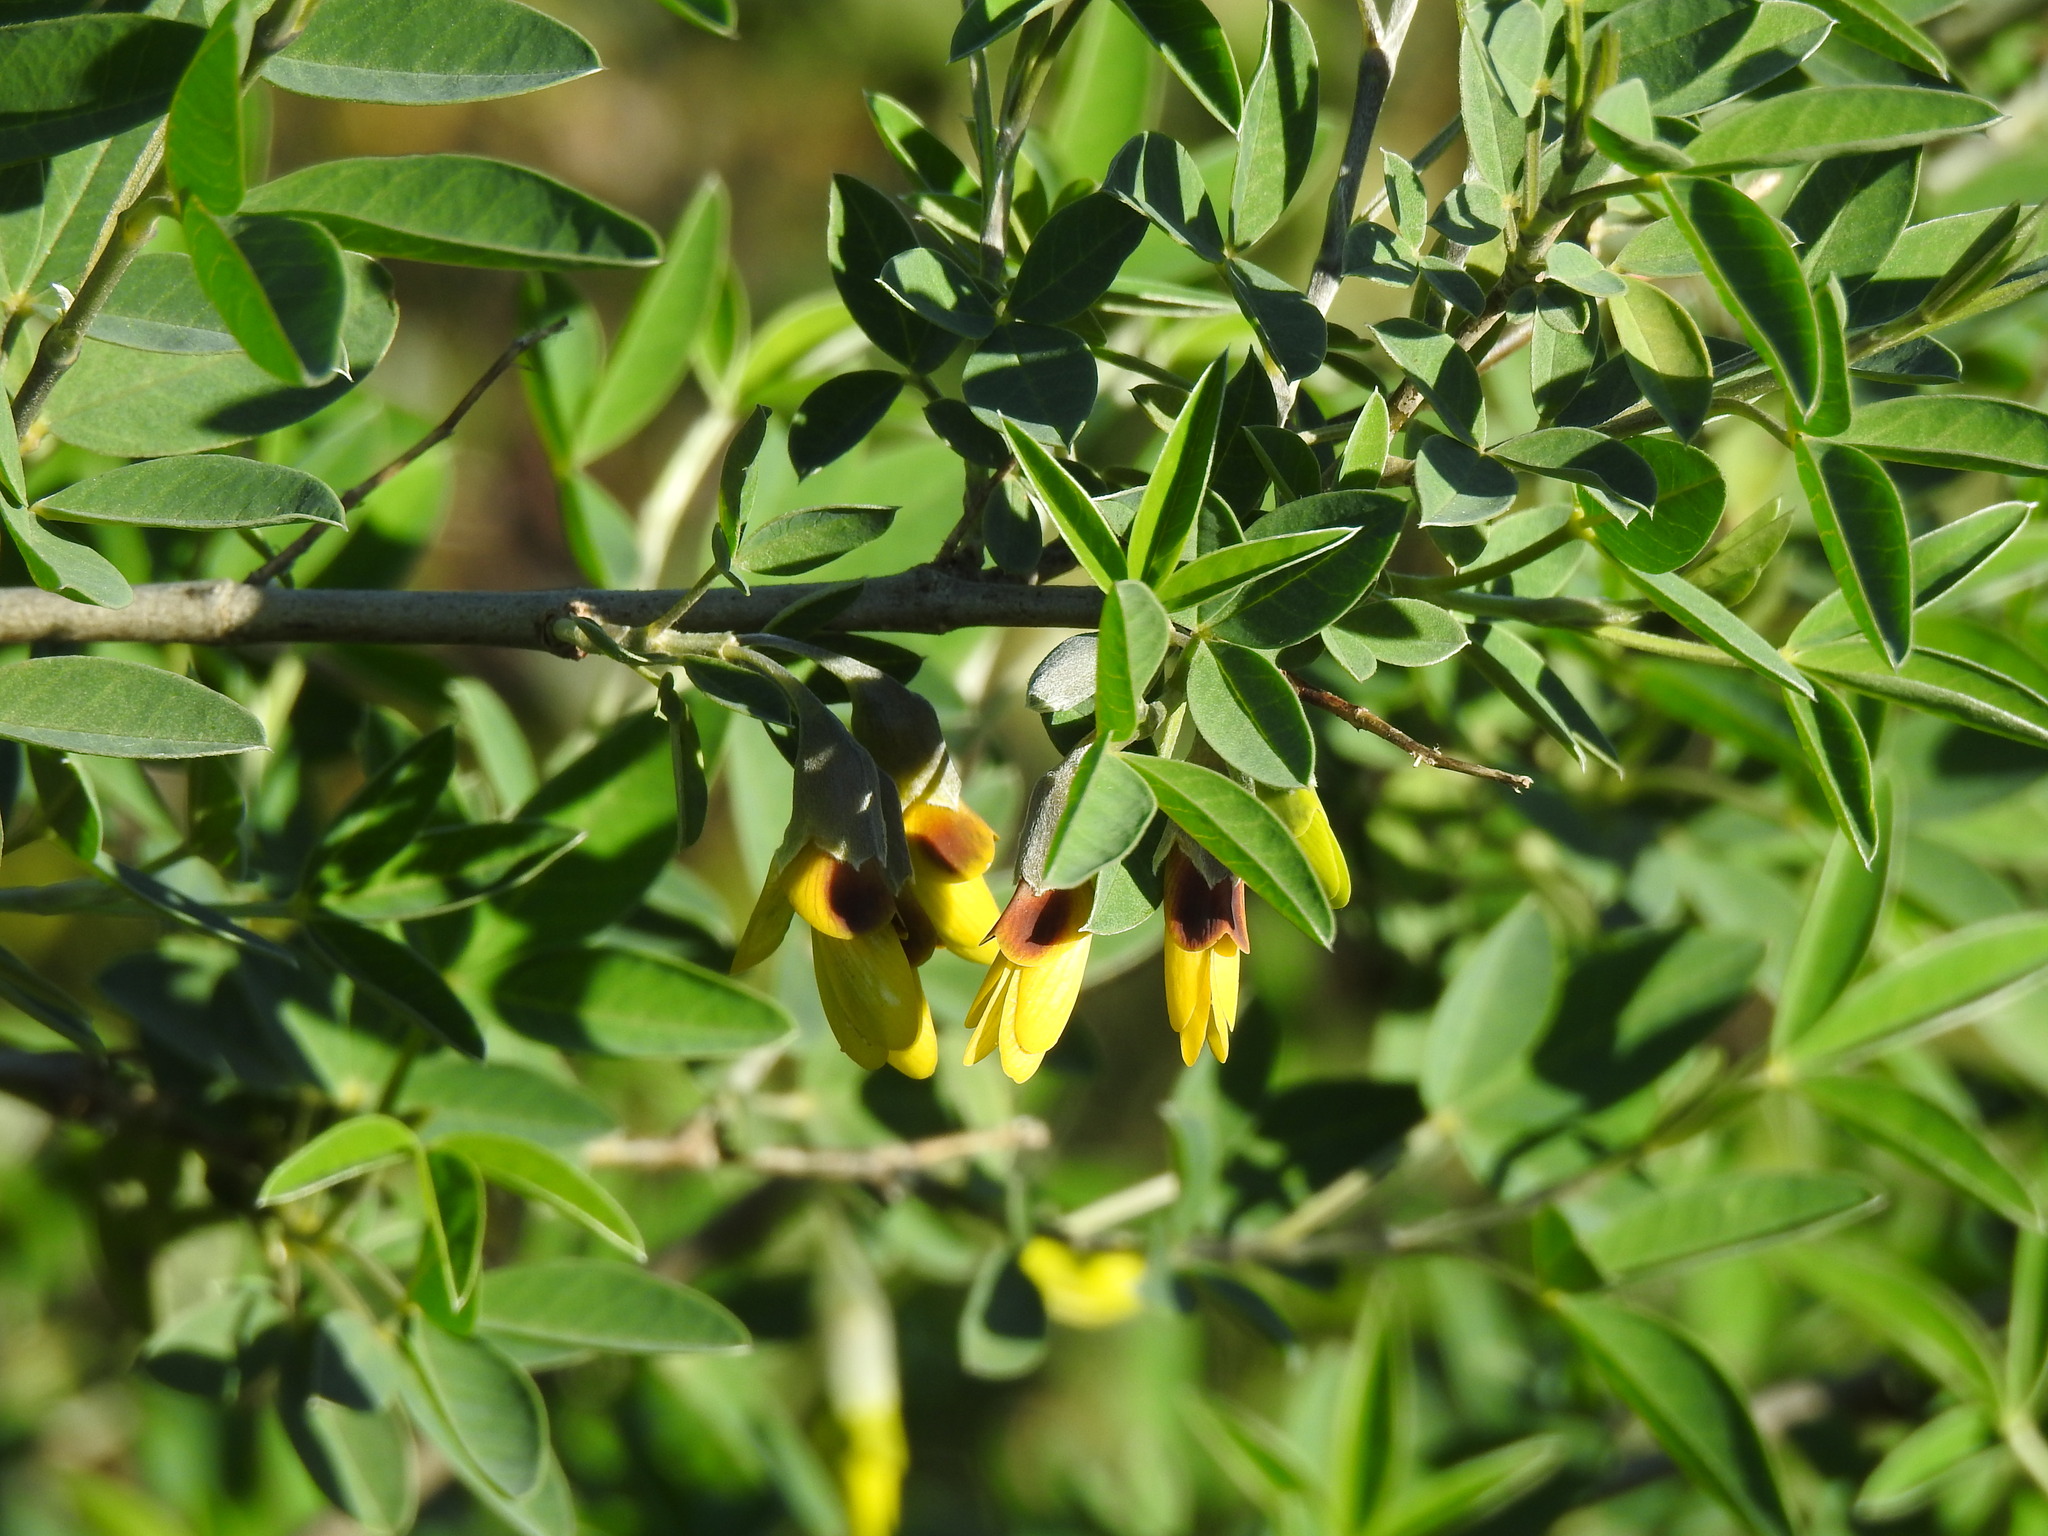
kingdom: Plantae
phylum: Tracheophyta
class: Magnoliopsida
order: Fabales
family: Fabaceae
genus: Anagyris
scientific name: Anagyris foetida
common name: Stinking bean trefoil
